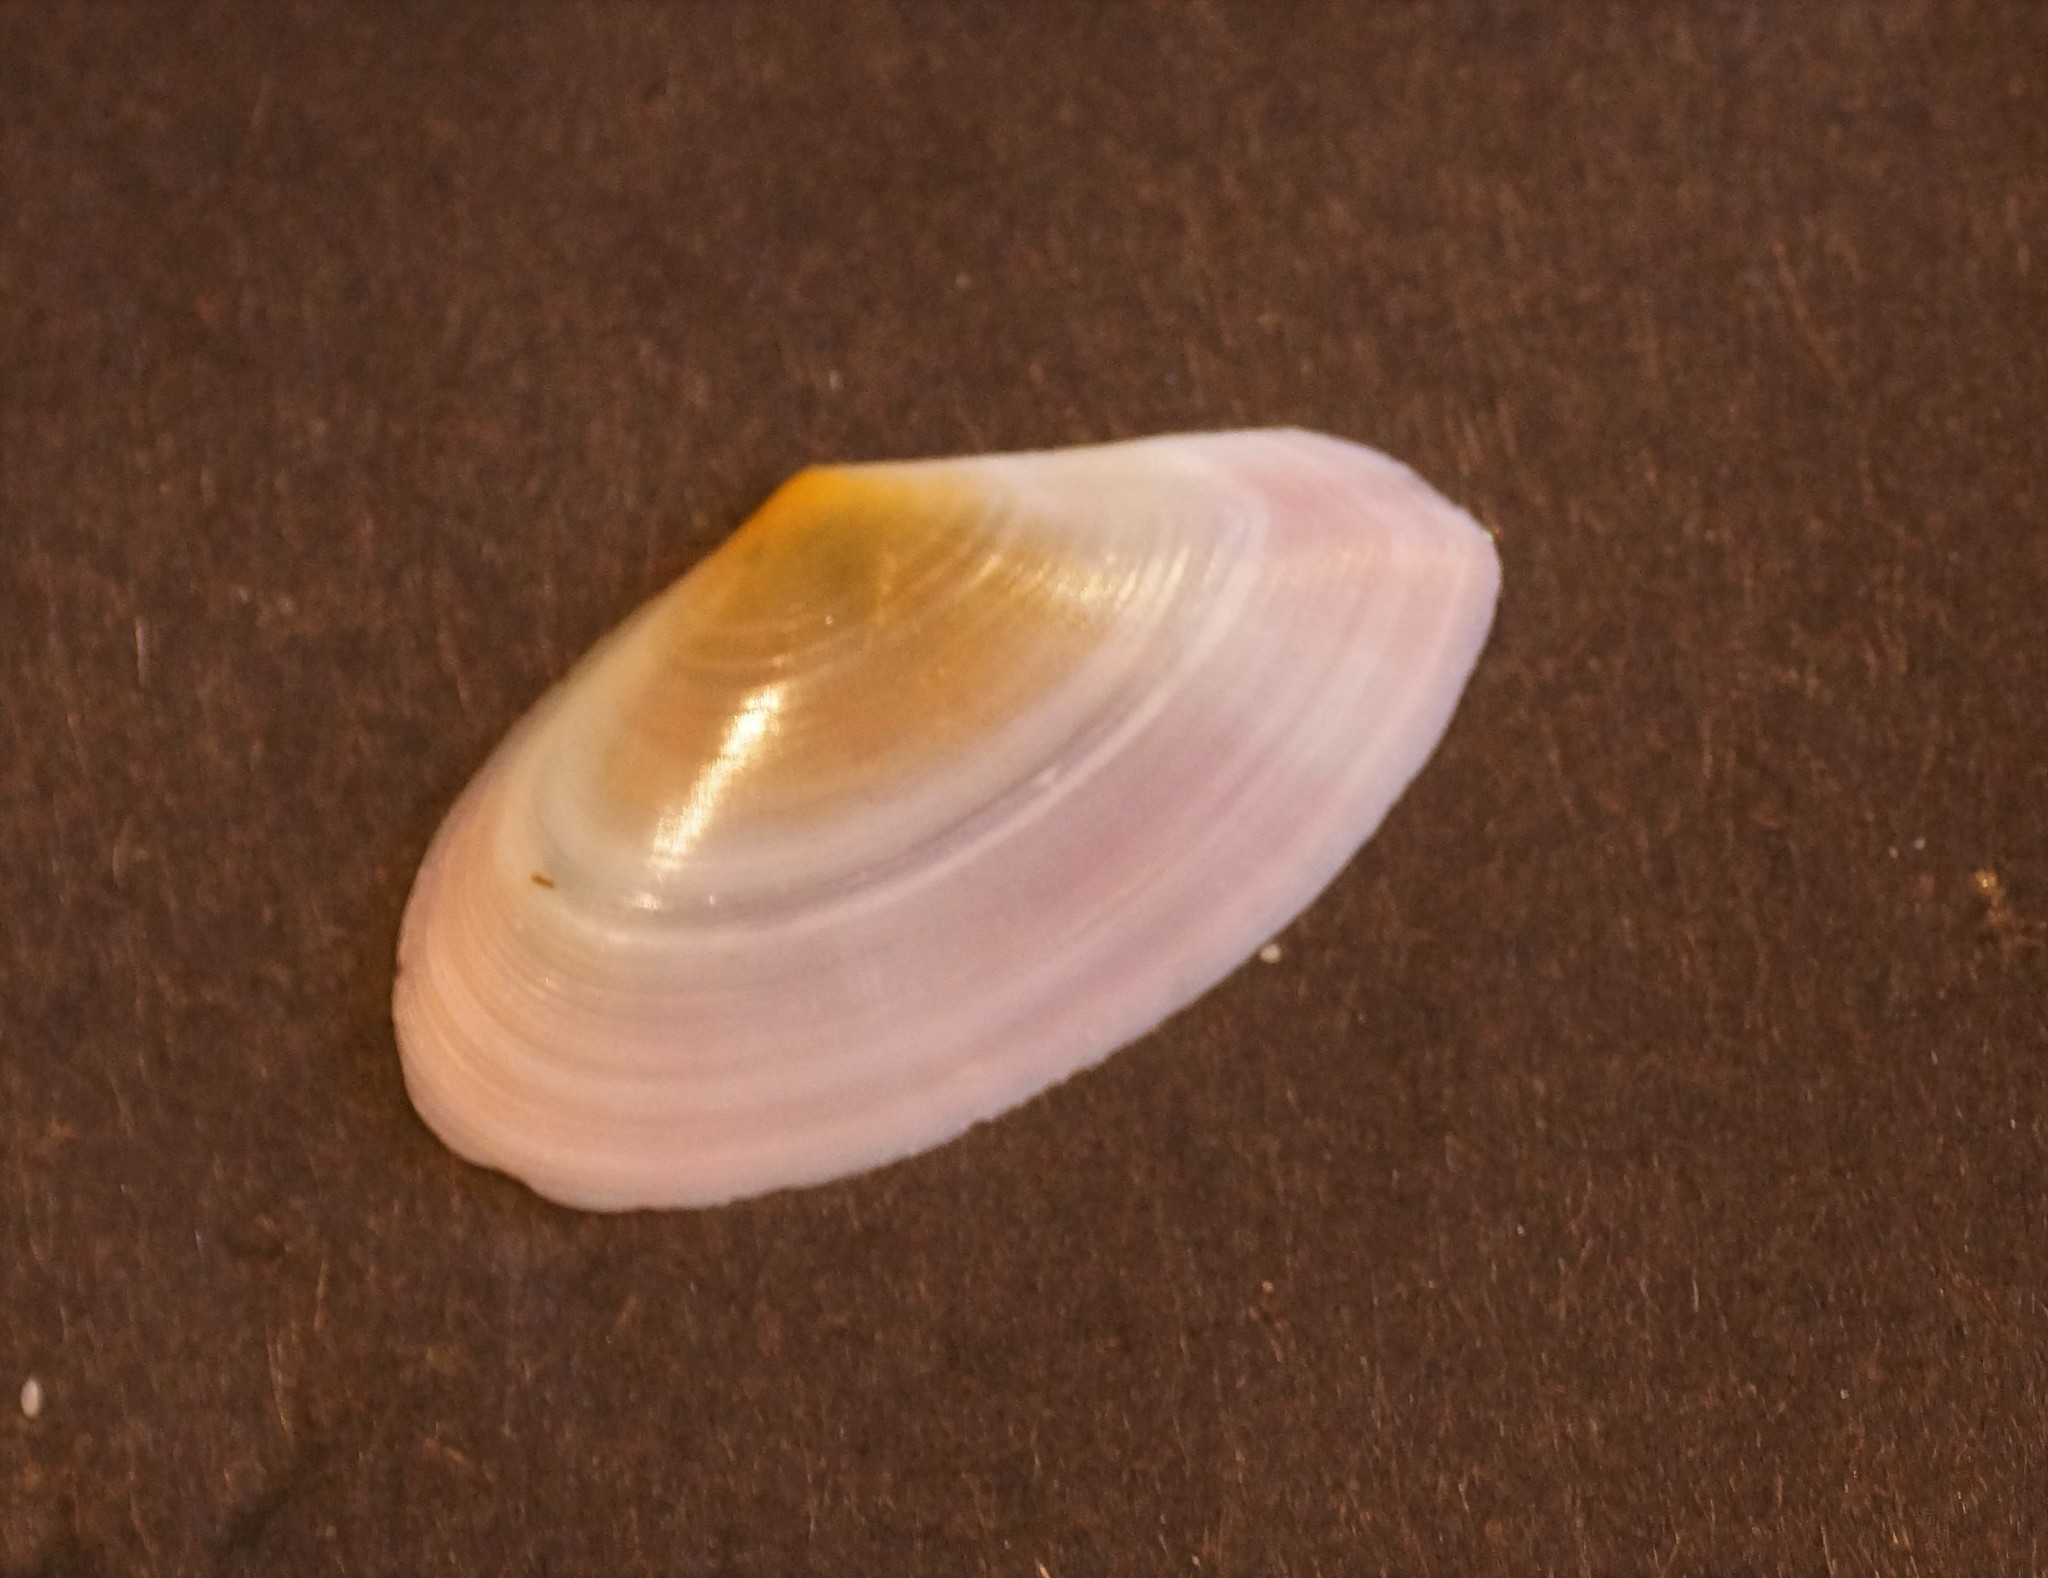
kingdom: Animalia
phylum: Mollusca
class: Bivalvia
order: Cardiida
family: Tellinidae
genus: Tellinota
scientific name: Tellinota albinella
